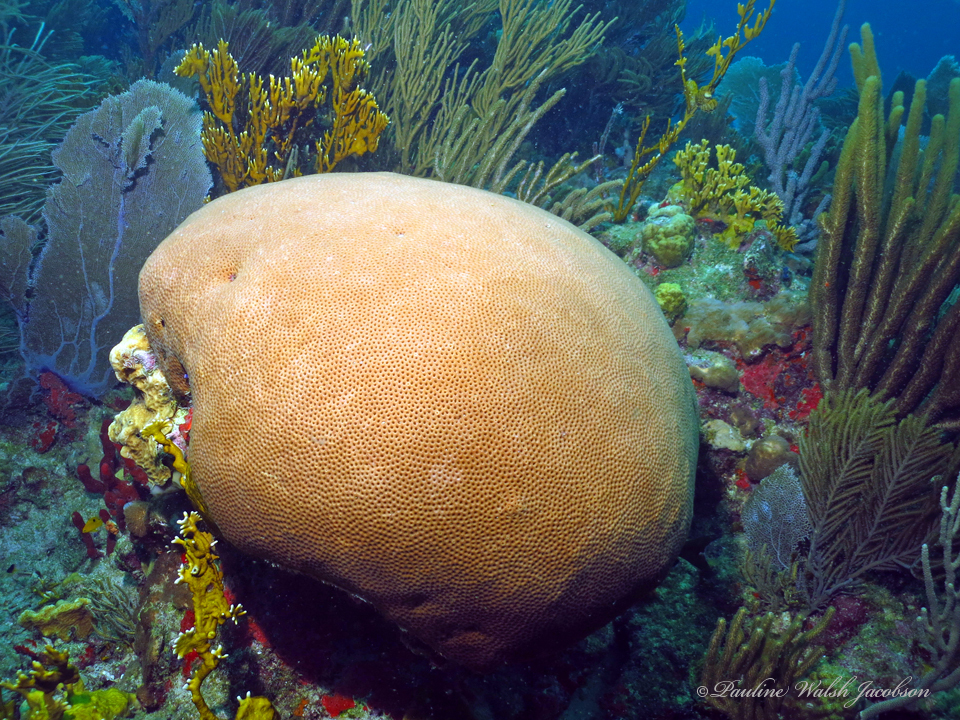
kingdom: Animalia
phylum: Cnidaria
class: Anthozoa
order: Scleractinia
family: Rhizangiidae
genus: Siderastrea
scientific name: Siderastrea siderea
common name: Massive starlet coral
